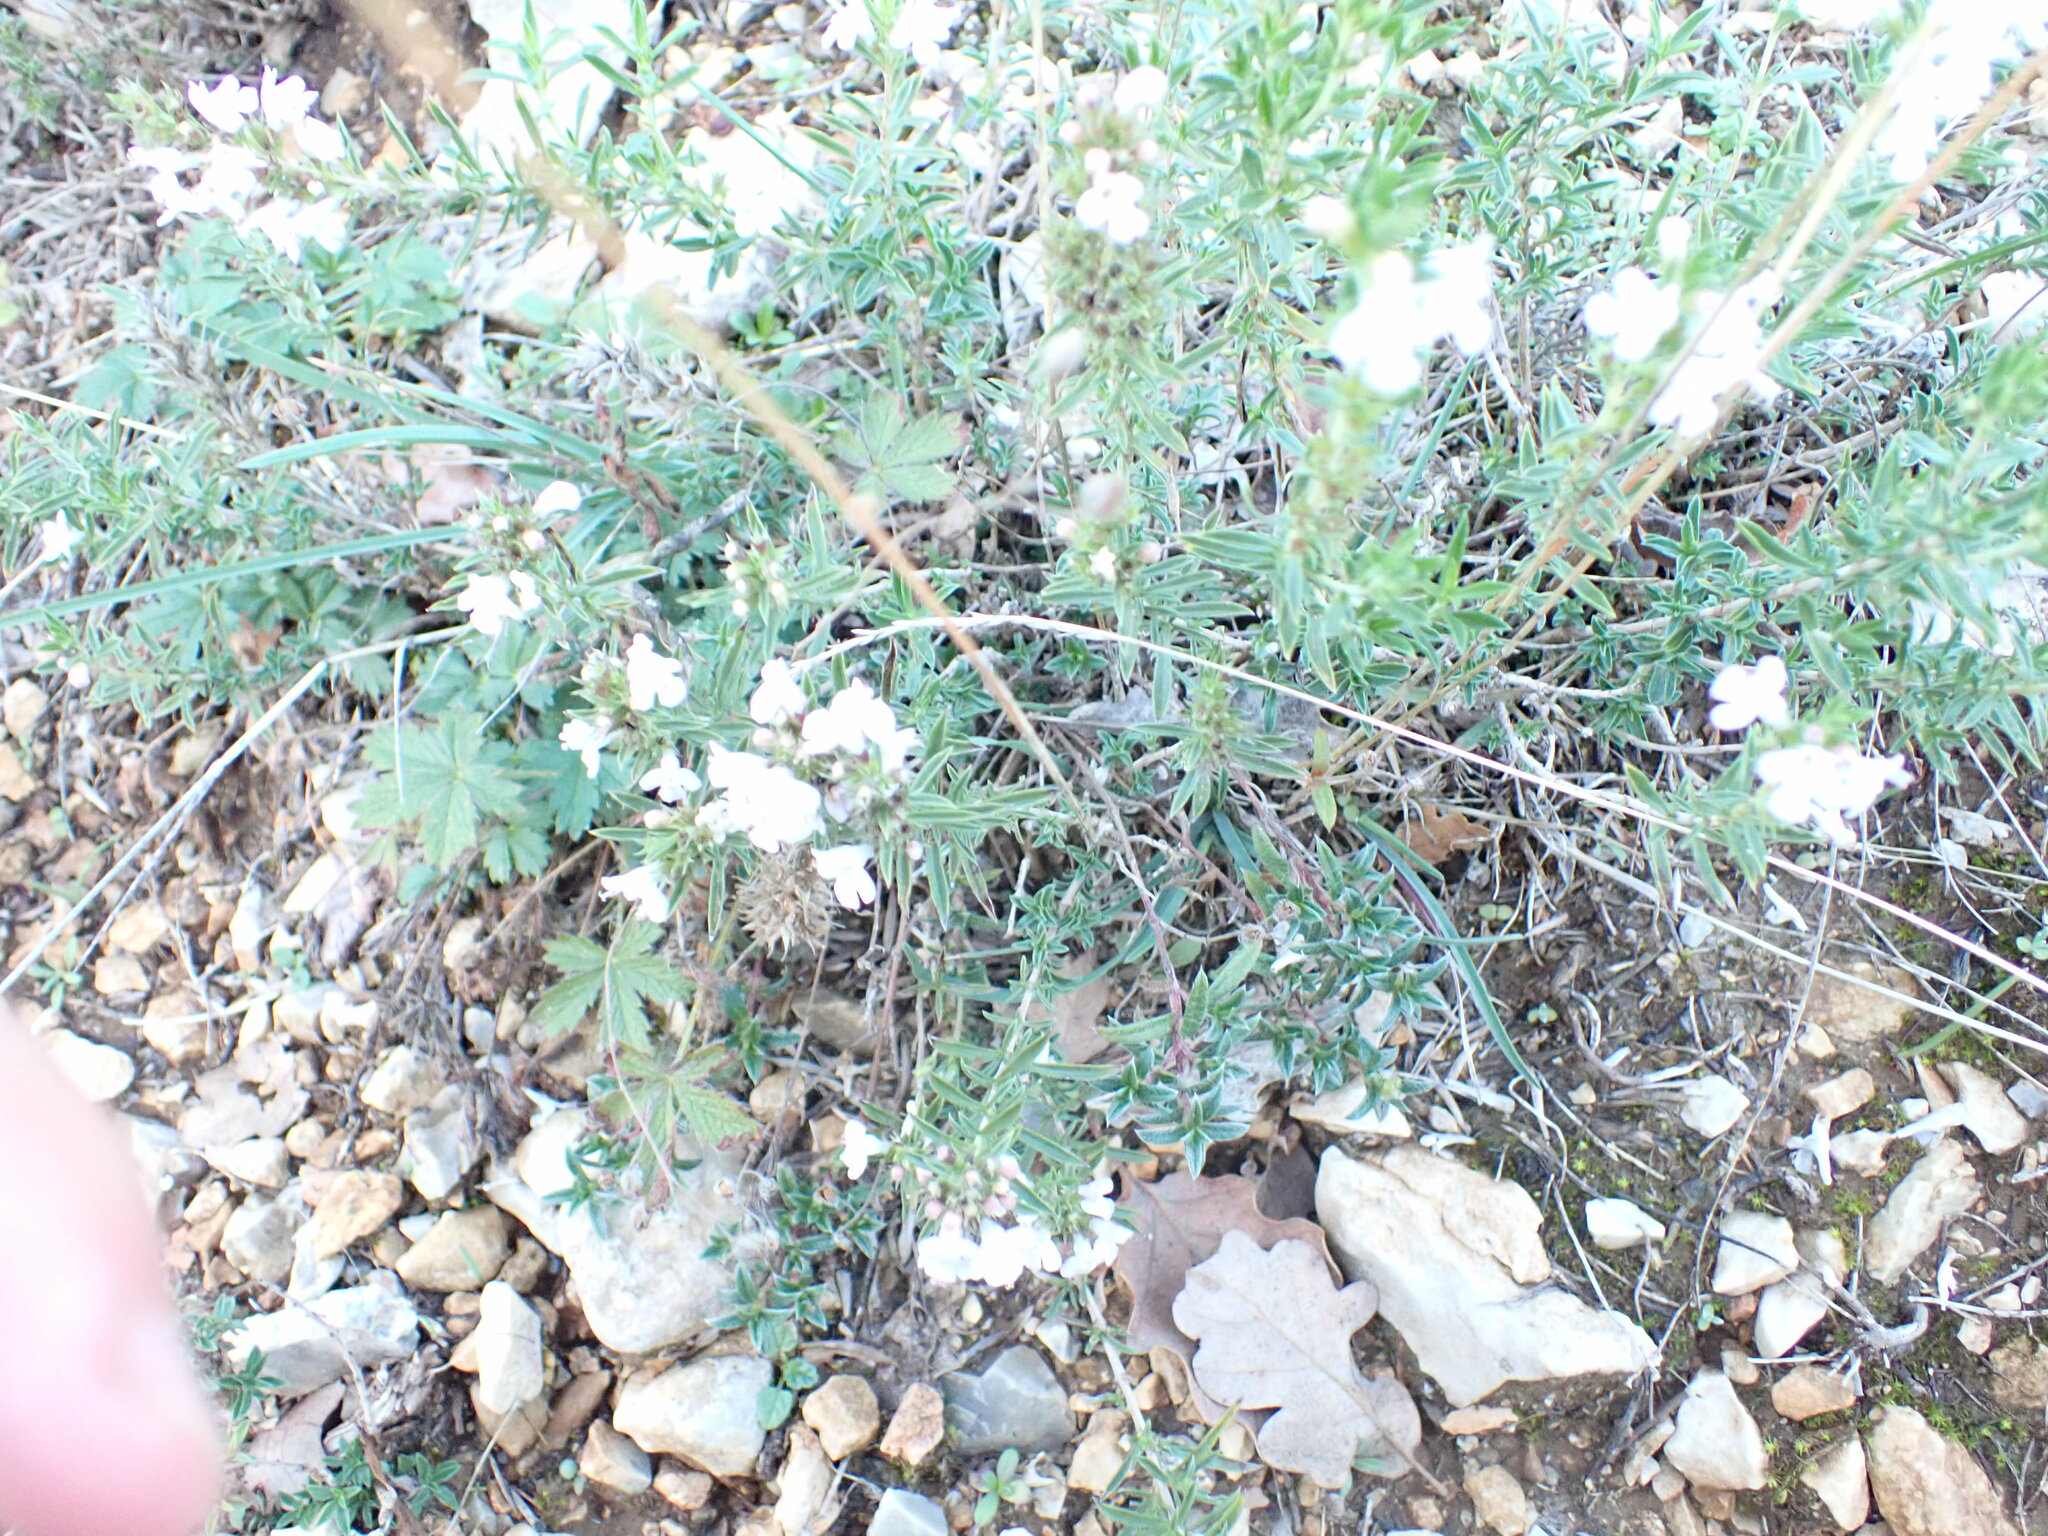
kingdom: Plantae
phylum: Tracheophyta
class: Magnoliopsida
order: Lamiales
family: Lamiaceae
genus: Satureja
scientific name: Satureja montana
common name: Winter savory
